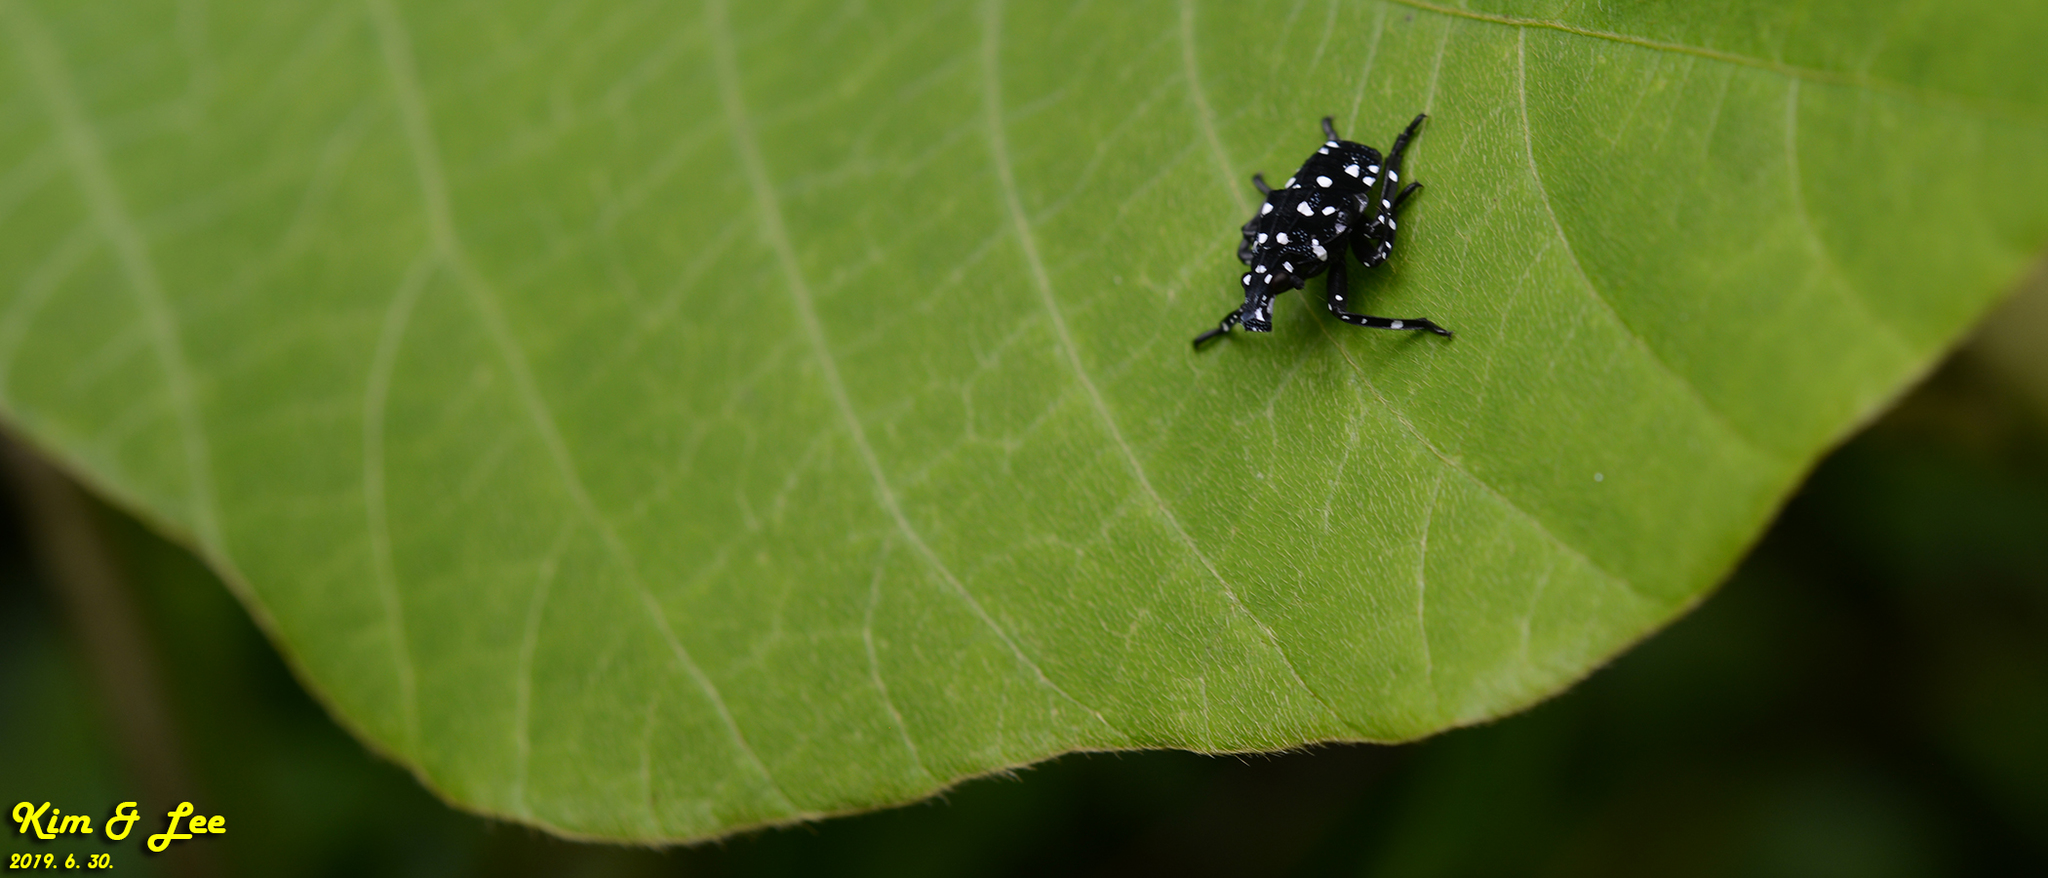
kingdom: Animalia
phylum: Arthropoda
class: Insecta
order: Hemiptera
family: Fulgoridae
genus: Lycorma
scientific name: Lycorma delicatula
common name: Spotted lanternfly
